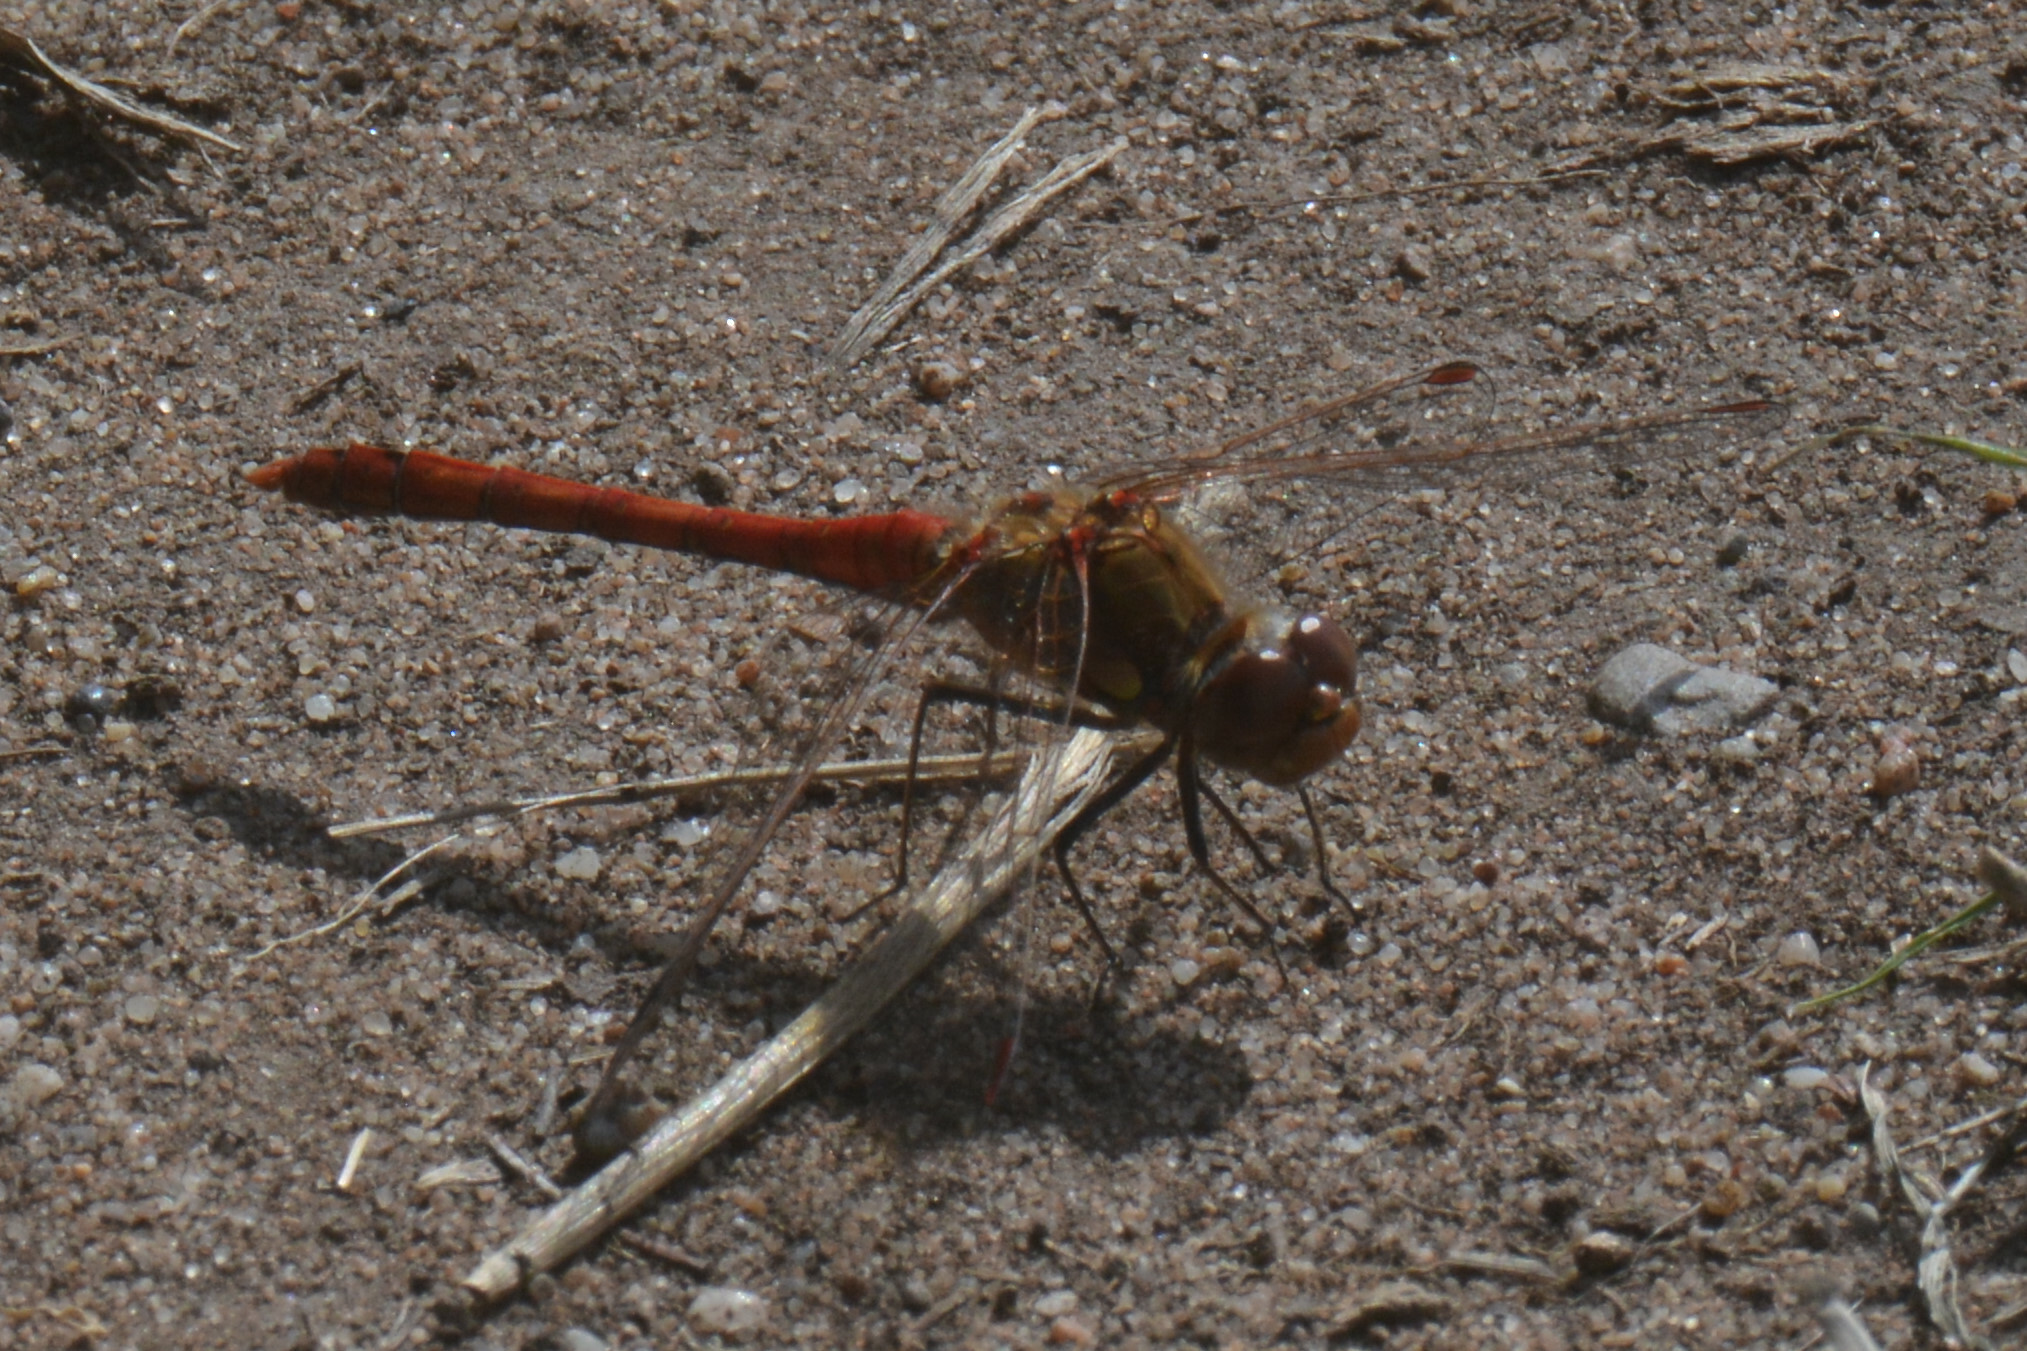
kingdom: Animalia
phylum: Arthropoda
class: Insecta
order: Odonata
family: Libellulidae
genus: Sympetrum
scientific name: Sympetrum striolatum
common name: Common darter
